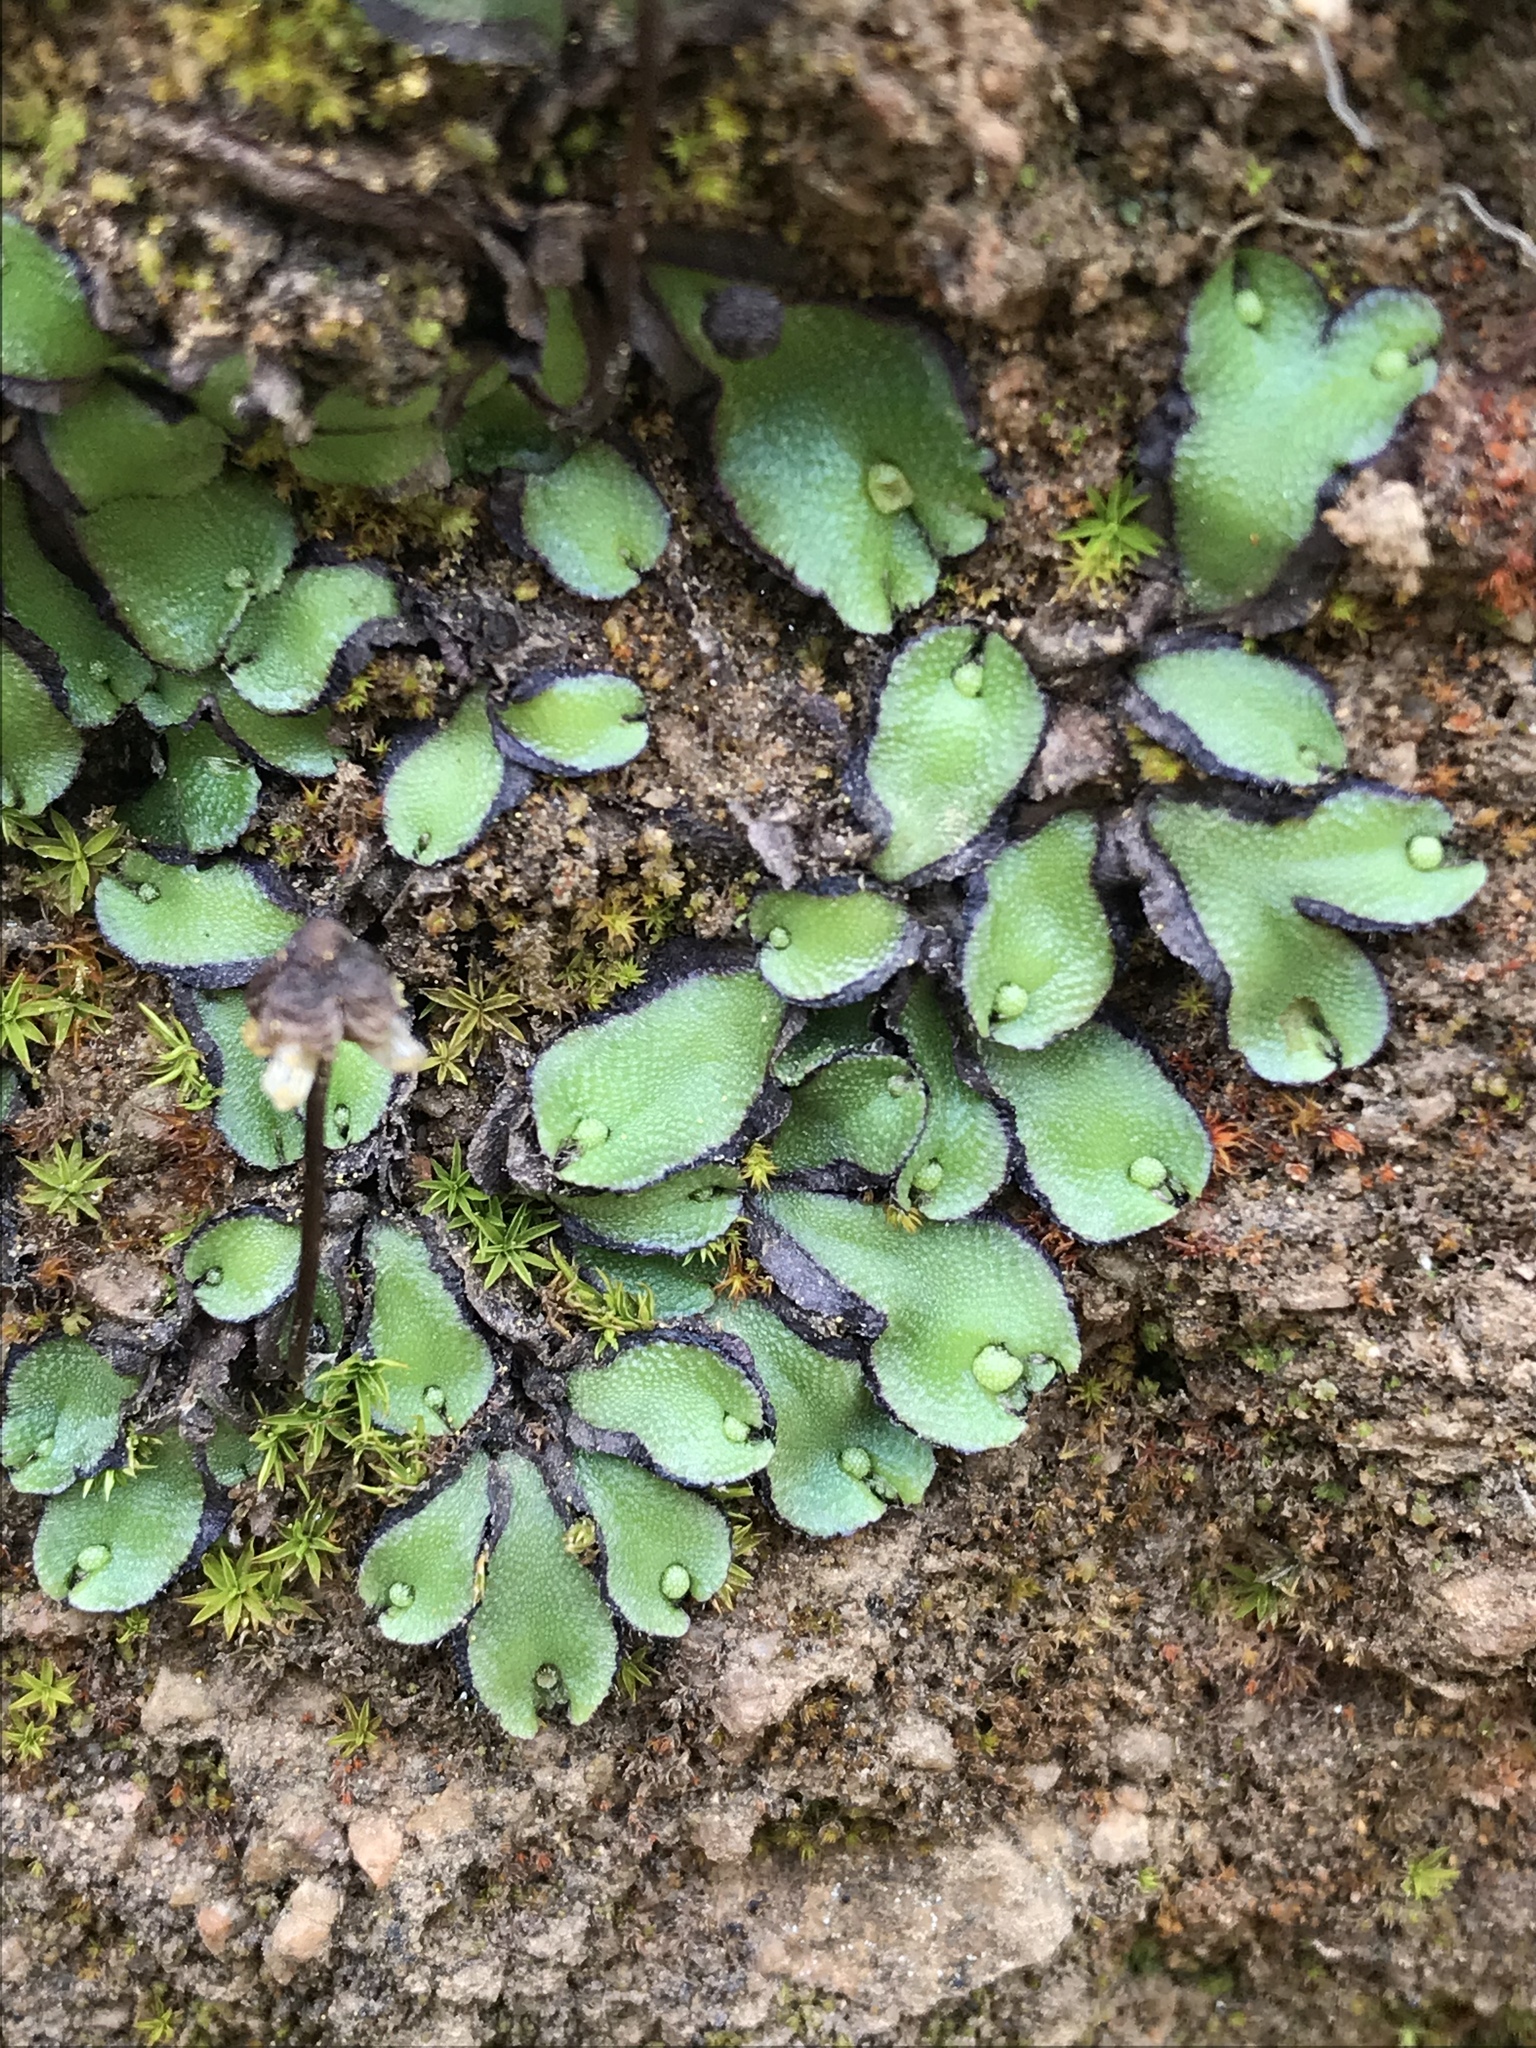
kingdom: Plantae
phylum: Marchantiophyta
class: Marchantiopsida
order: Marchantiales
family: Aytoniaceae
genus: Asterella
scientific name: Asterella californica
